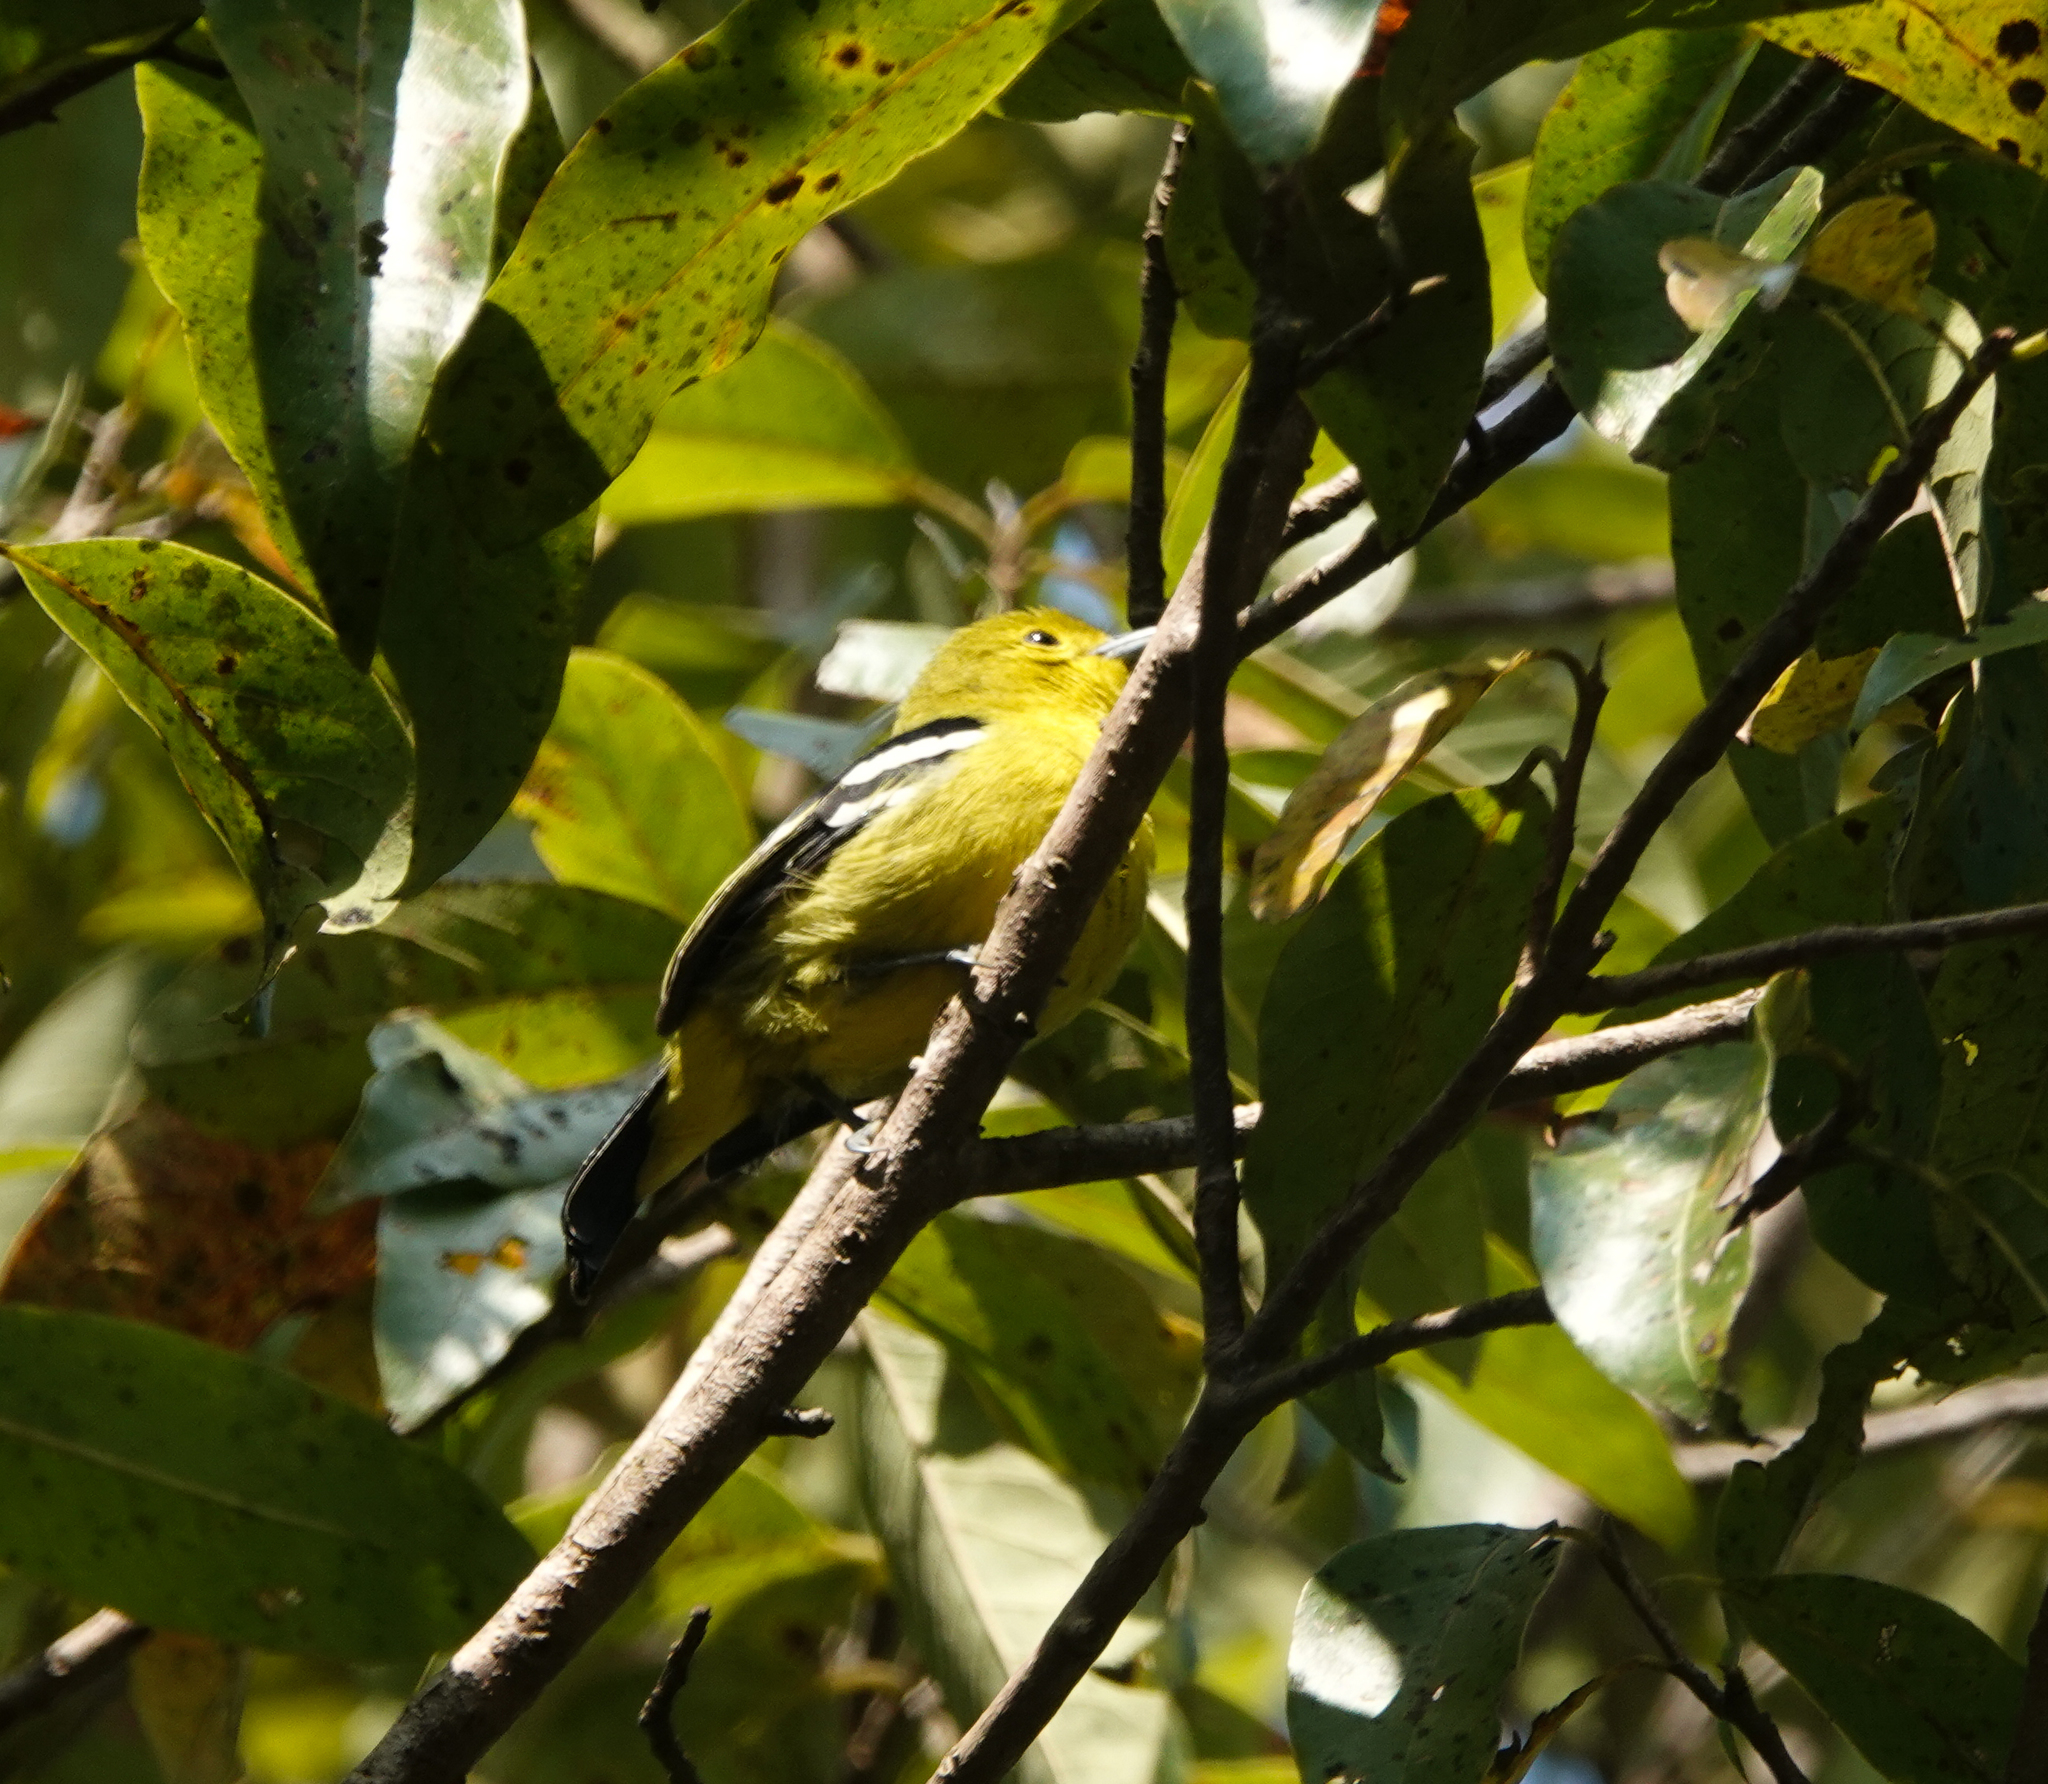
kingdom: Animalia
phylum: Chordata
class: Aves
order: Passeriformes
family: Aegithinidae
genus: Aegithina
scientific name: Aegithina tiphia
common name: Common iora
